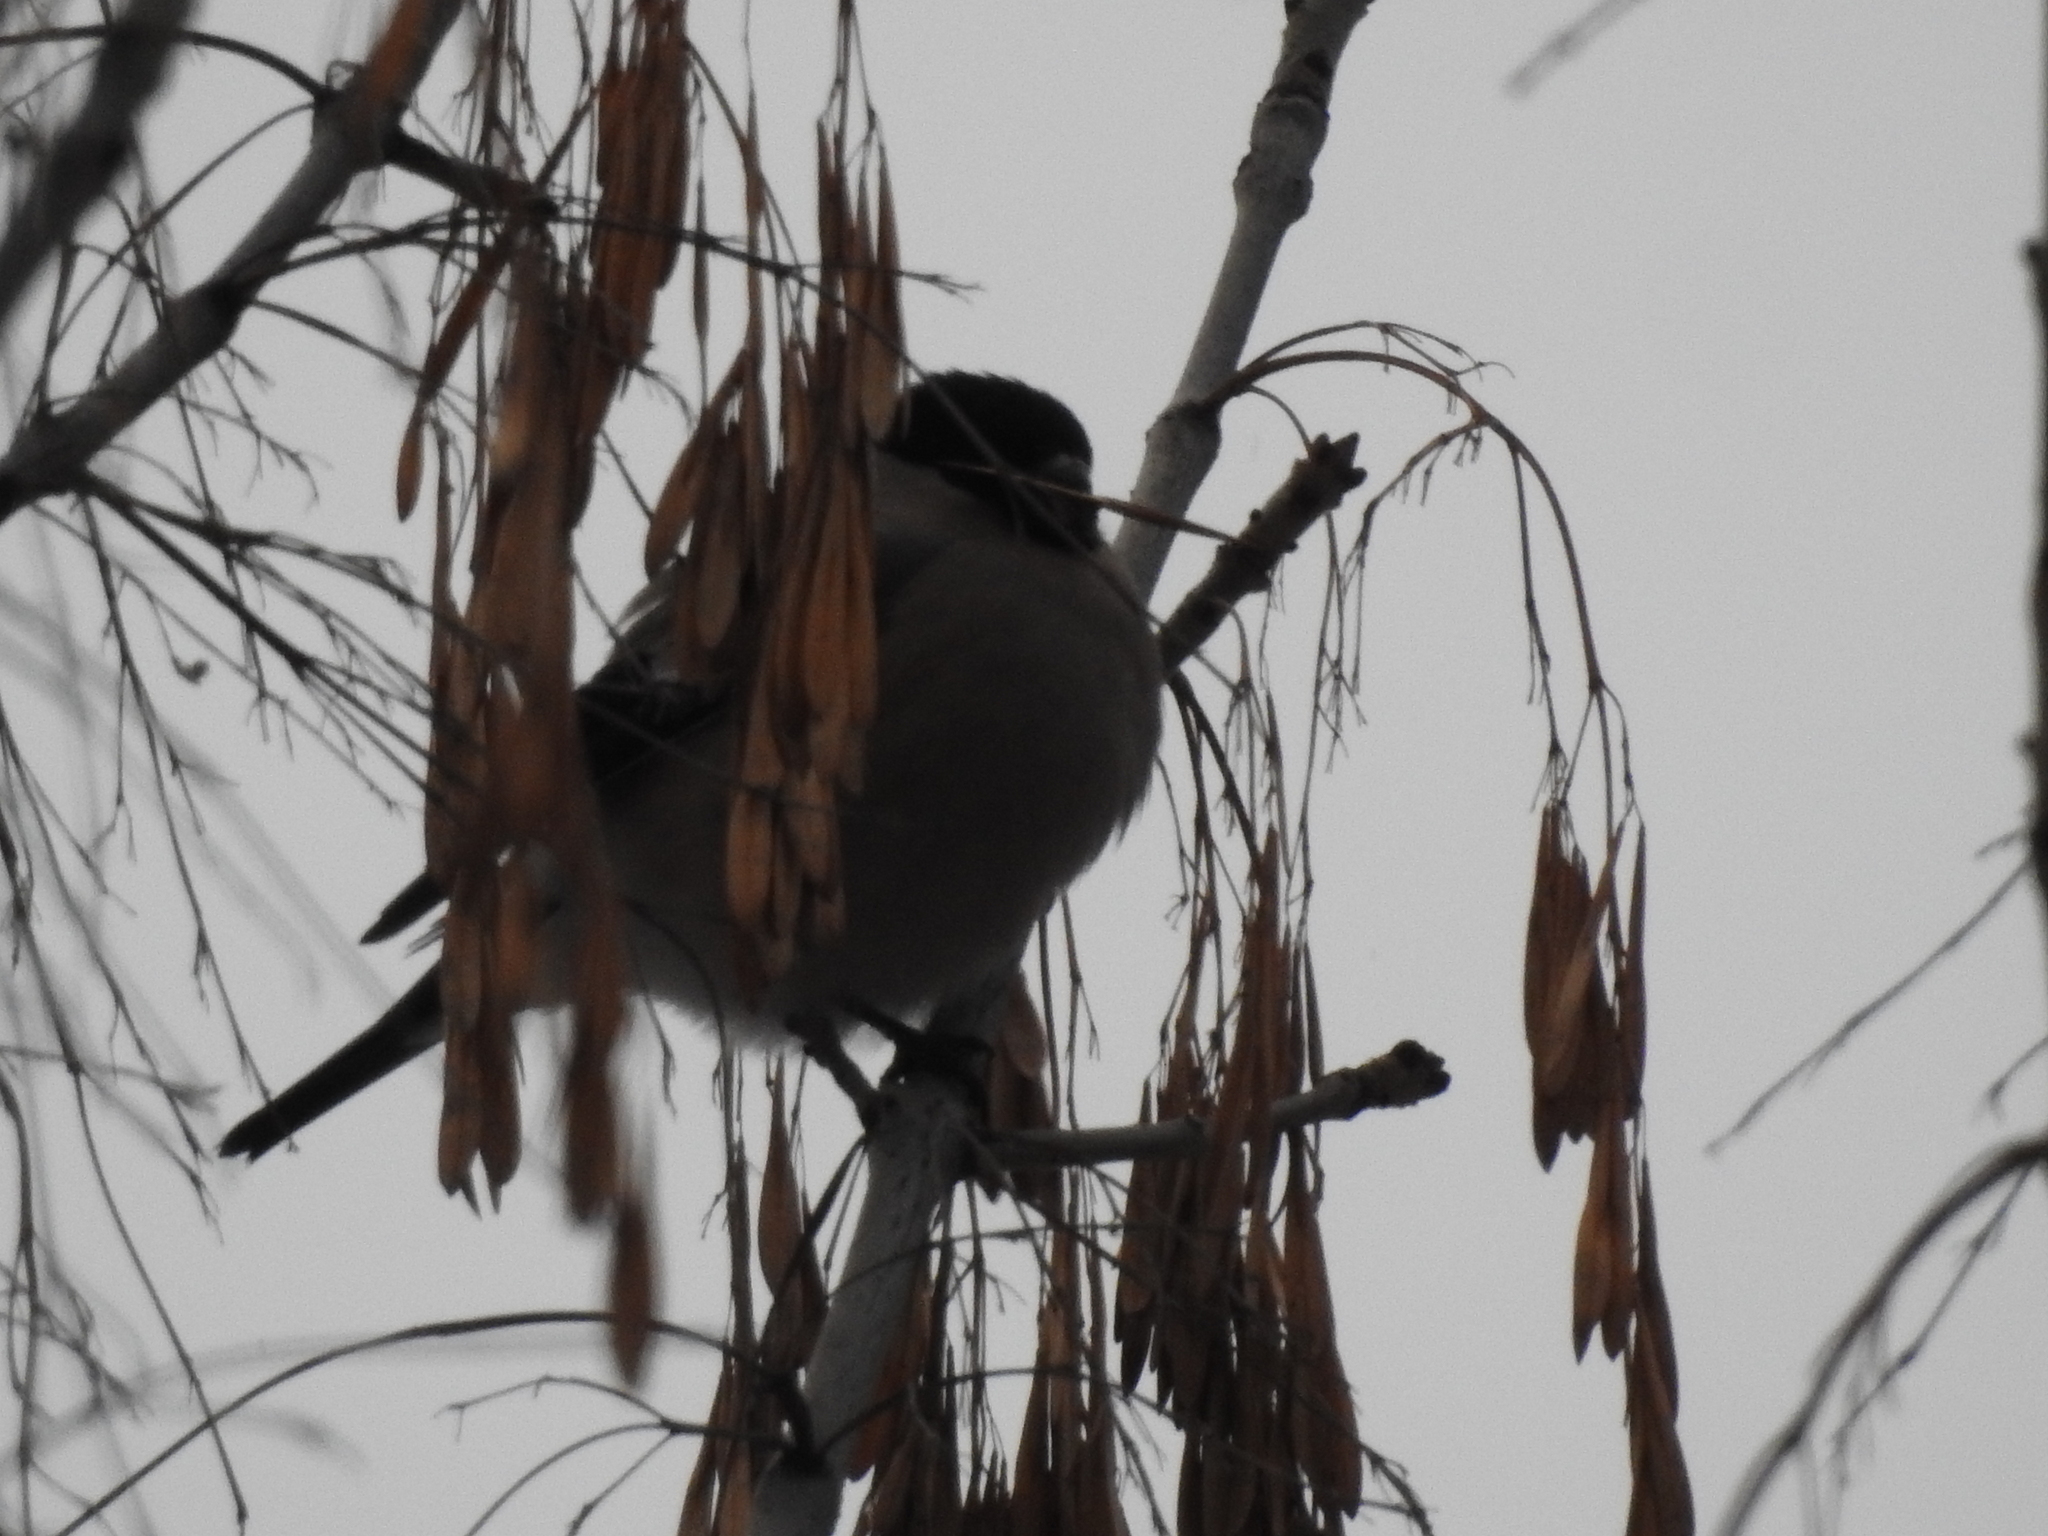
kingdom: Animalia
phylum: Chordata
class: Aves
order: Passeriformes
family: Fringillidae
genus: Pyrrhula
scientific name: Pyrrhula pyrrhula
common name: Eurasian bullfinch
